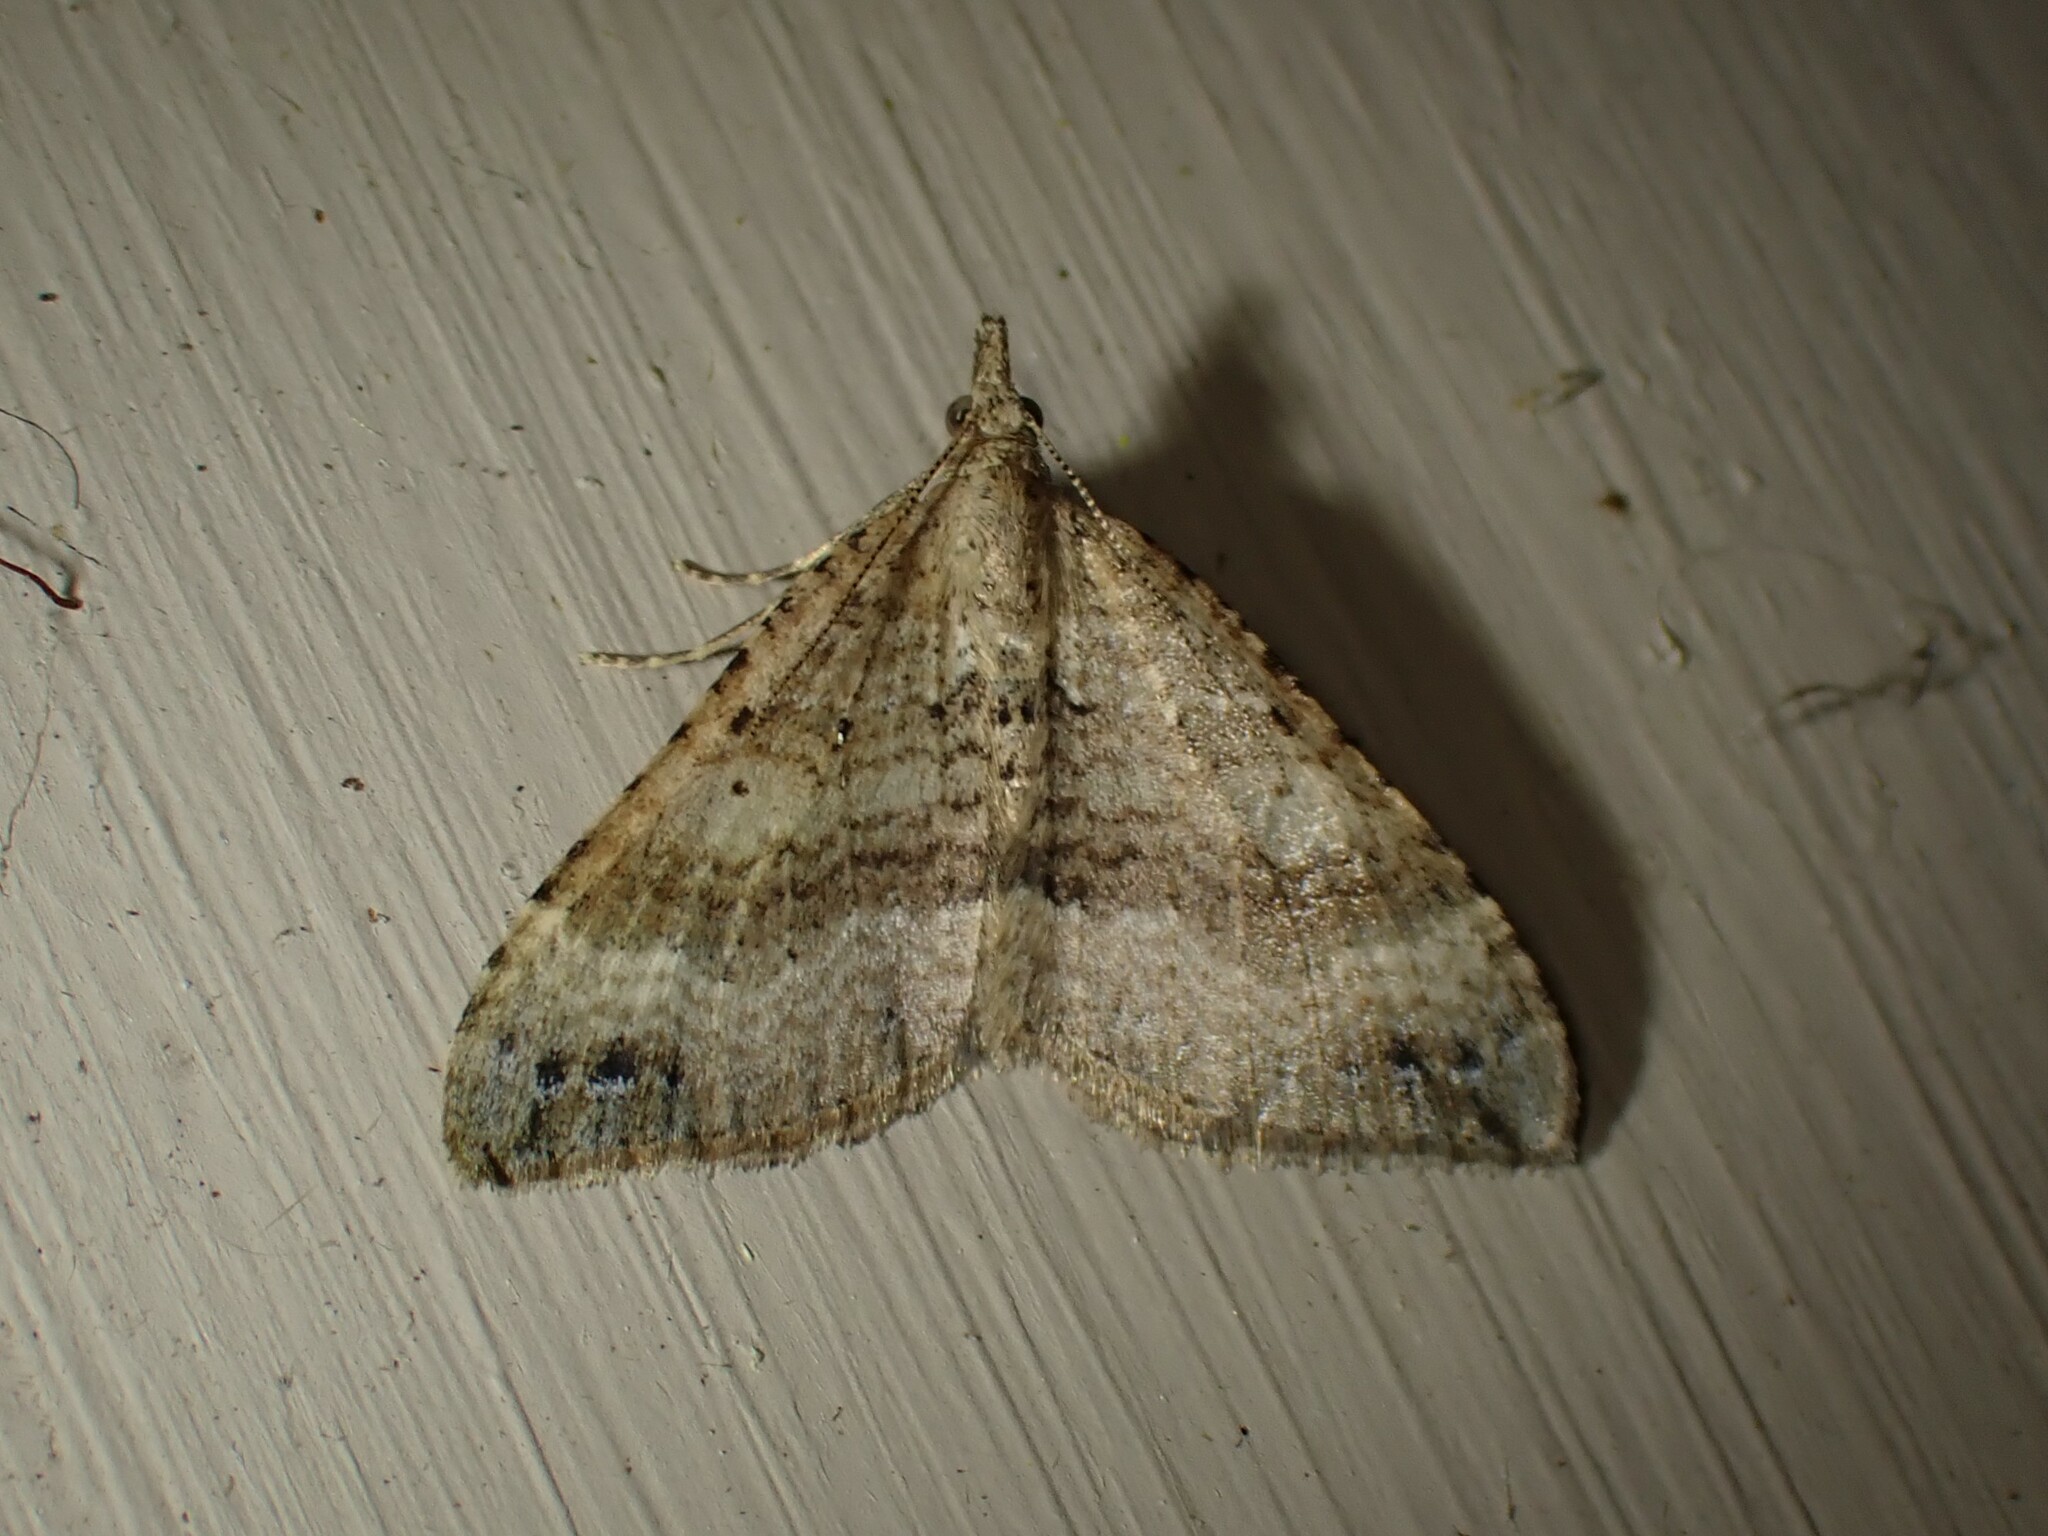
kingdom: Animalia
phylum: Arthropoda
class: Insecta
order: Lepidoptera
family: Geometridae
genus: Homodotis
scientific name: Homodotis falcata
